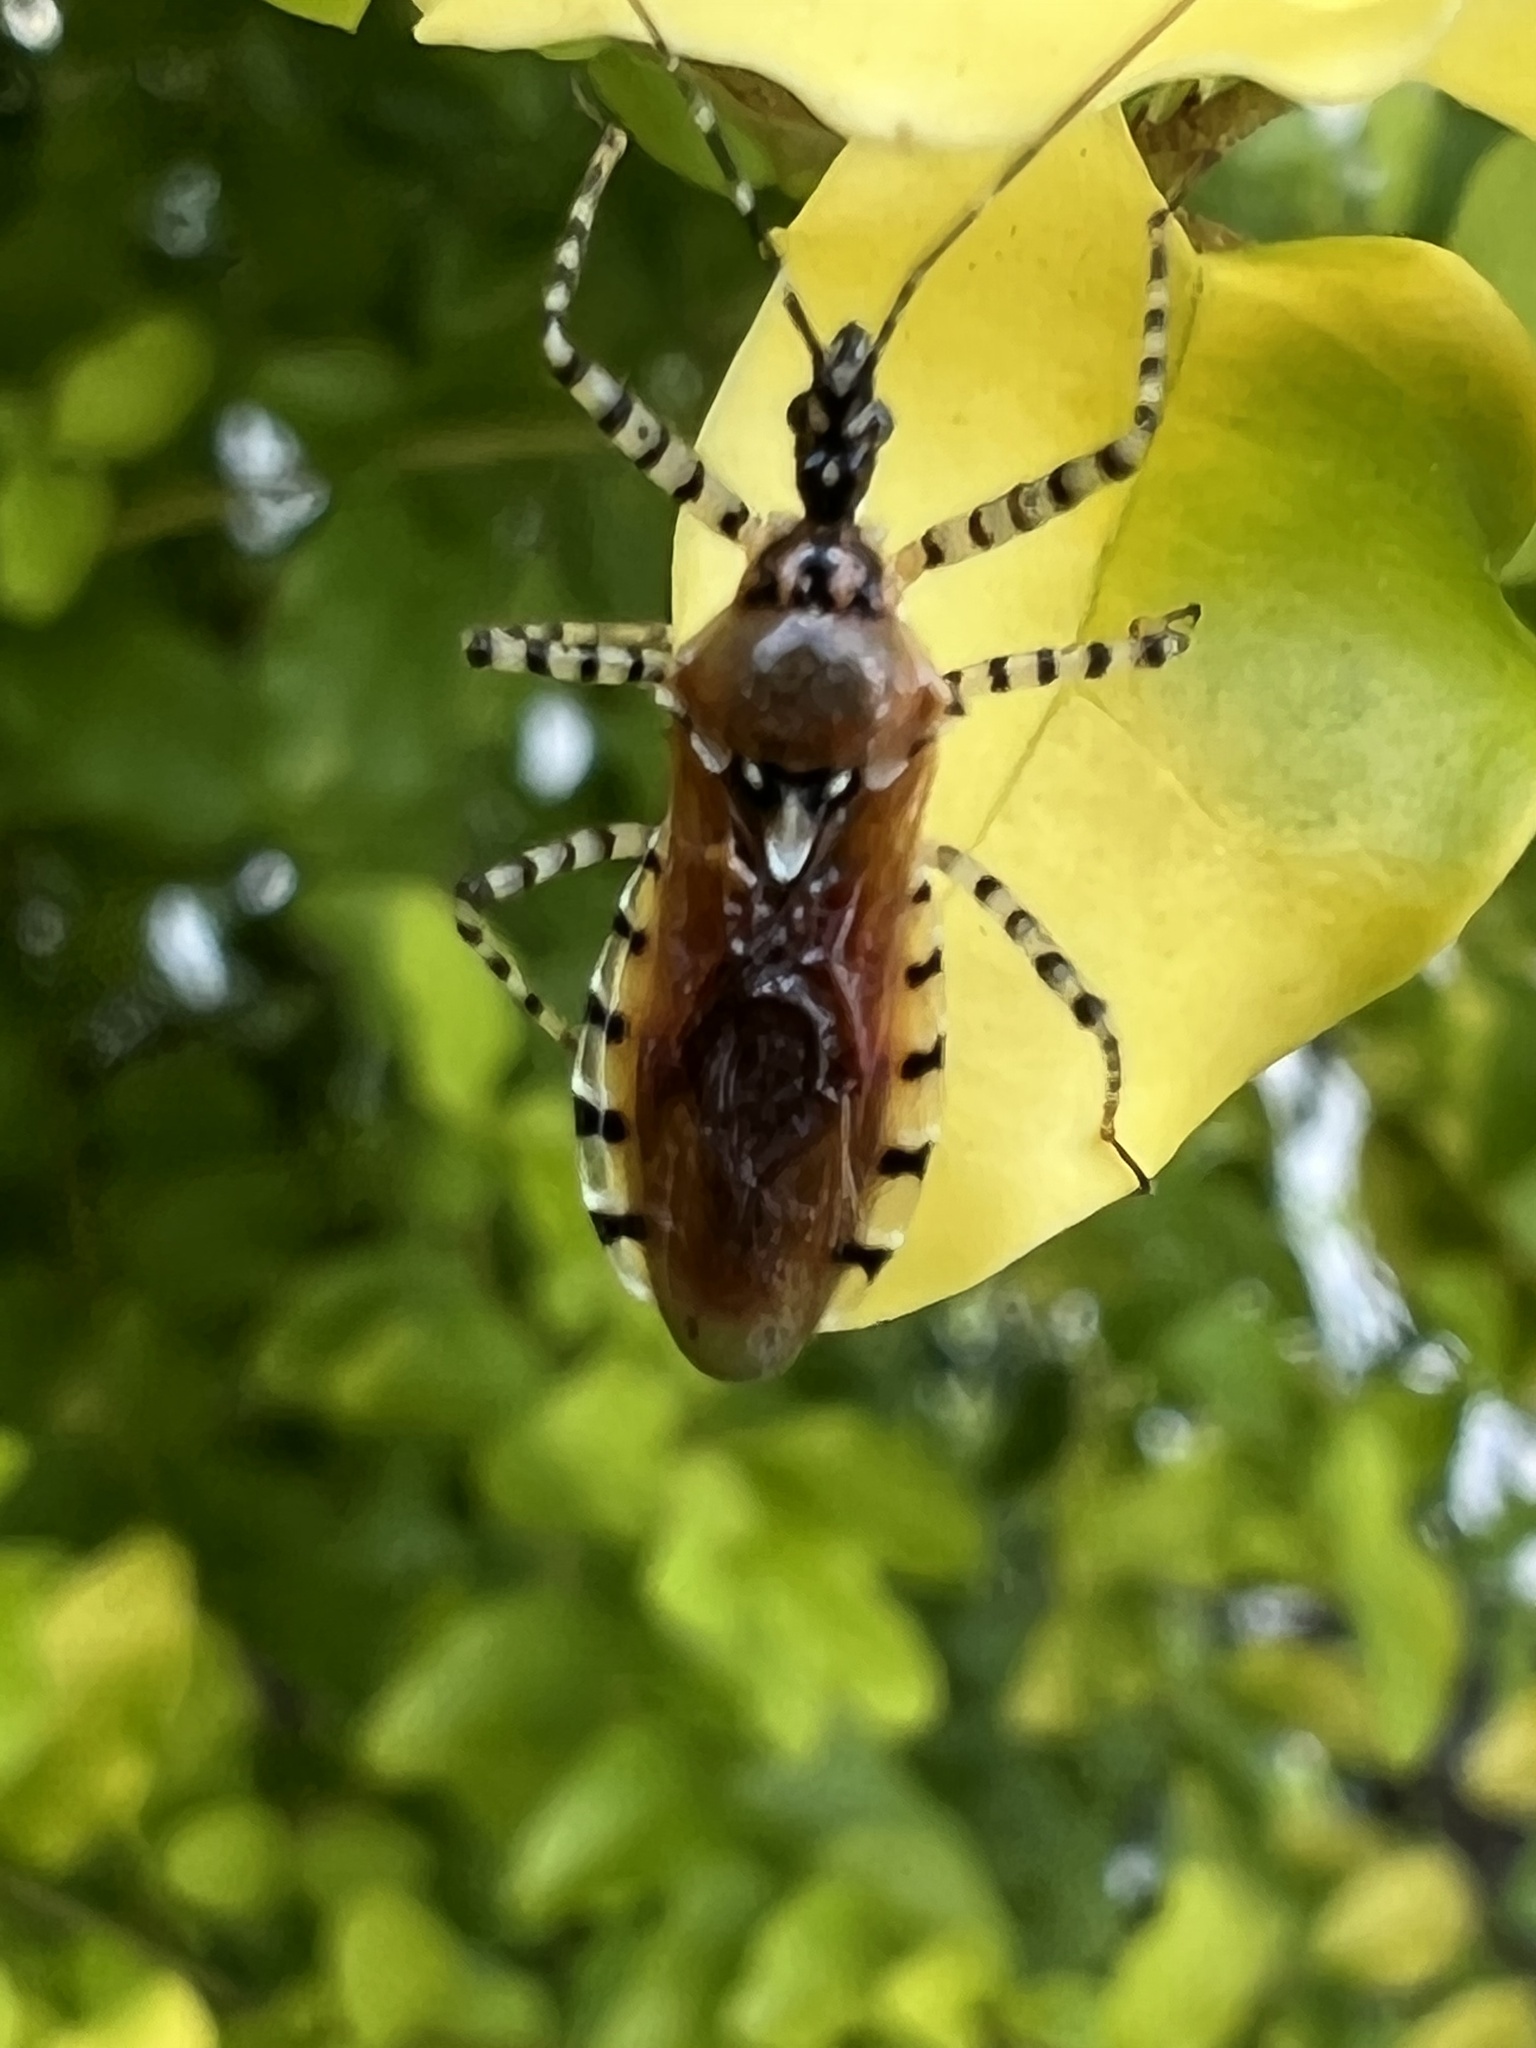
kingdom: Animalia
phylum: Arthropoda
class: Insecta
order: Hemiptera
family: Reduviidae
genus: Pselliopus
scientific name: Pselliopus cinctus
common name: Ringed assassin bug
